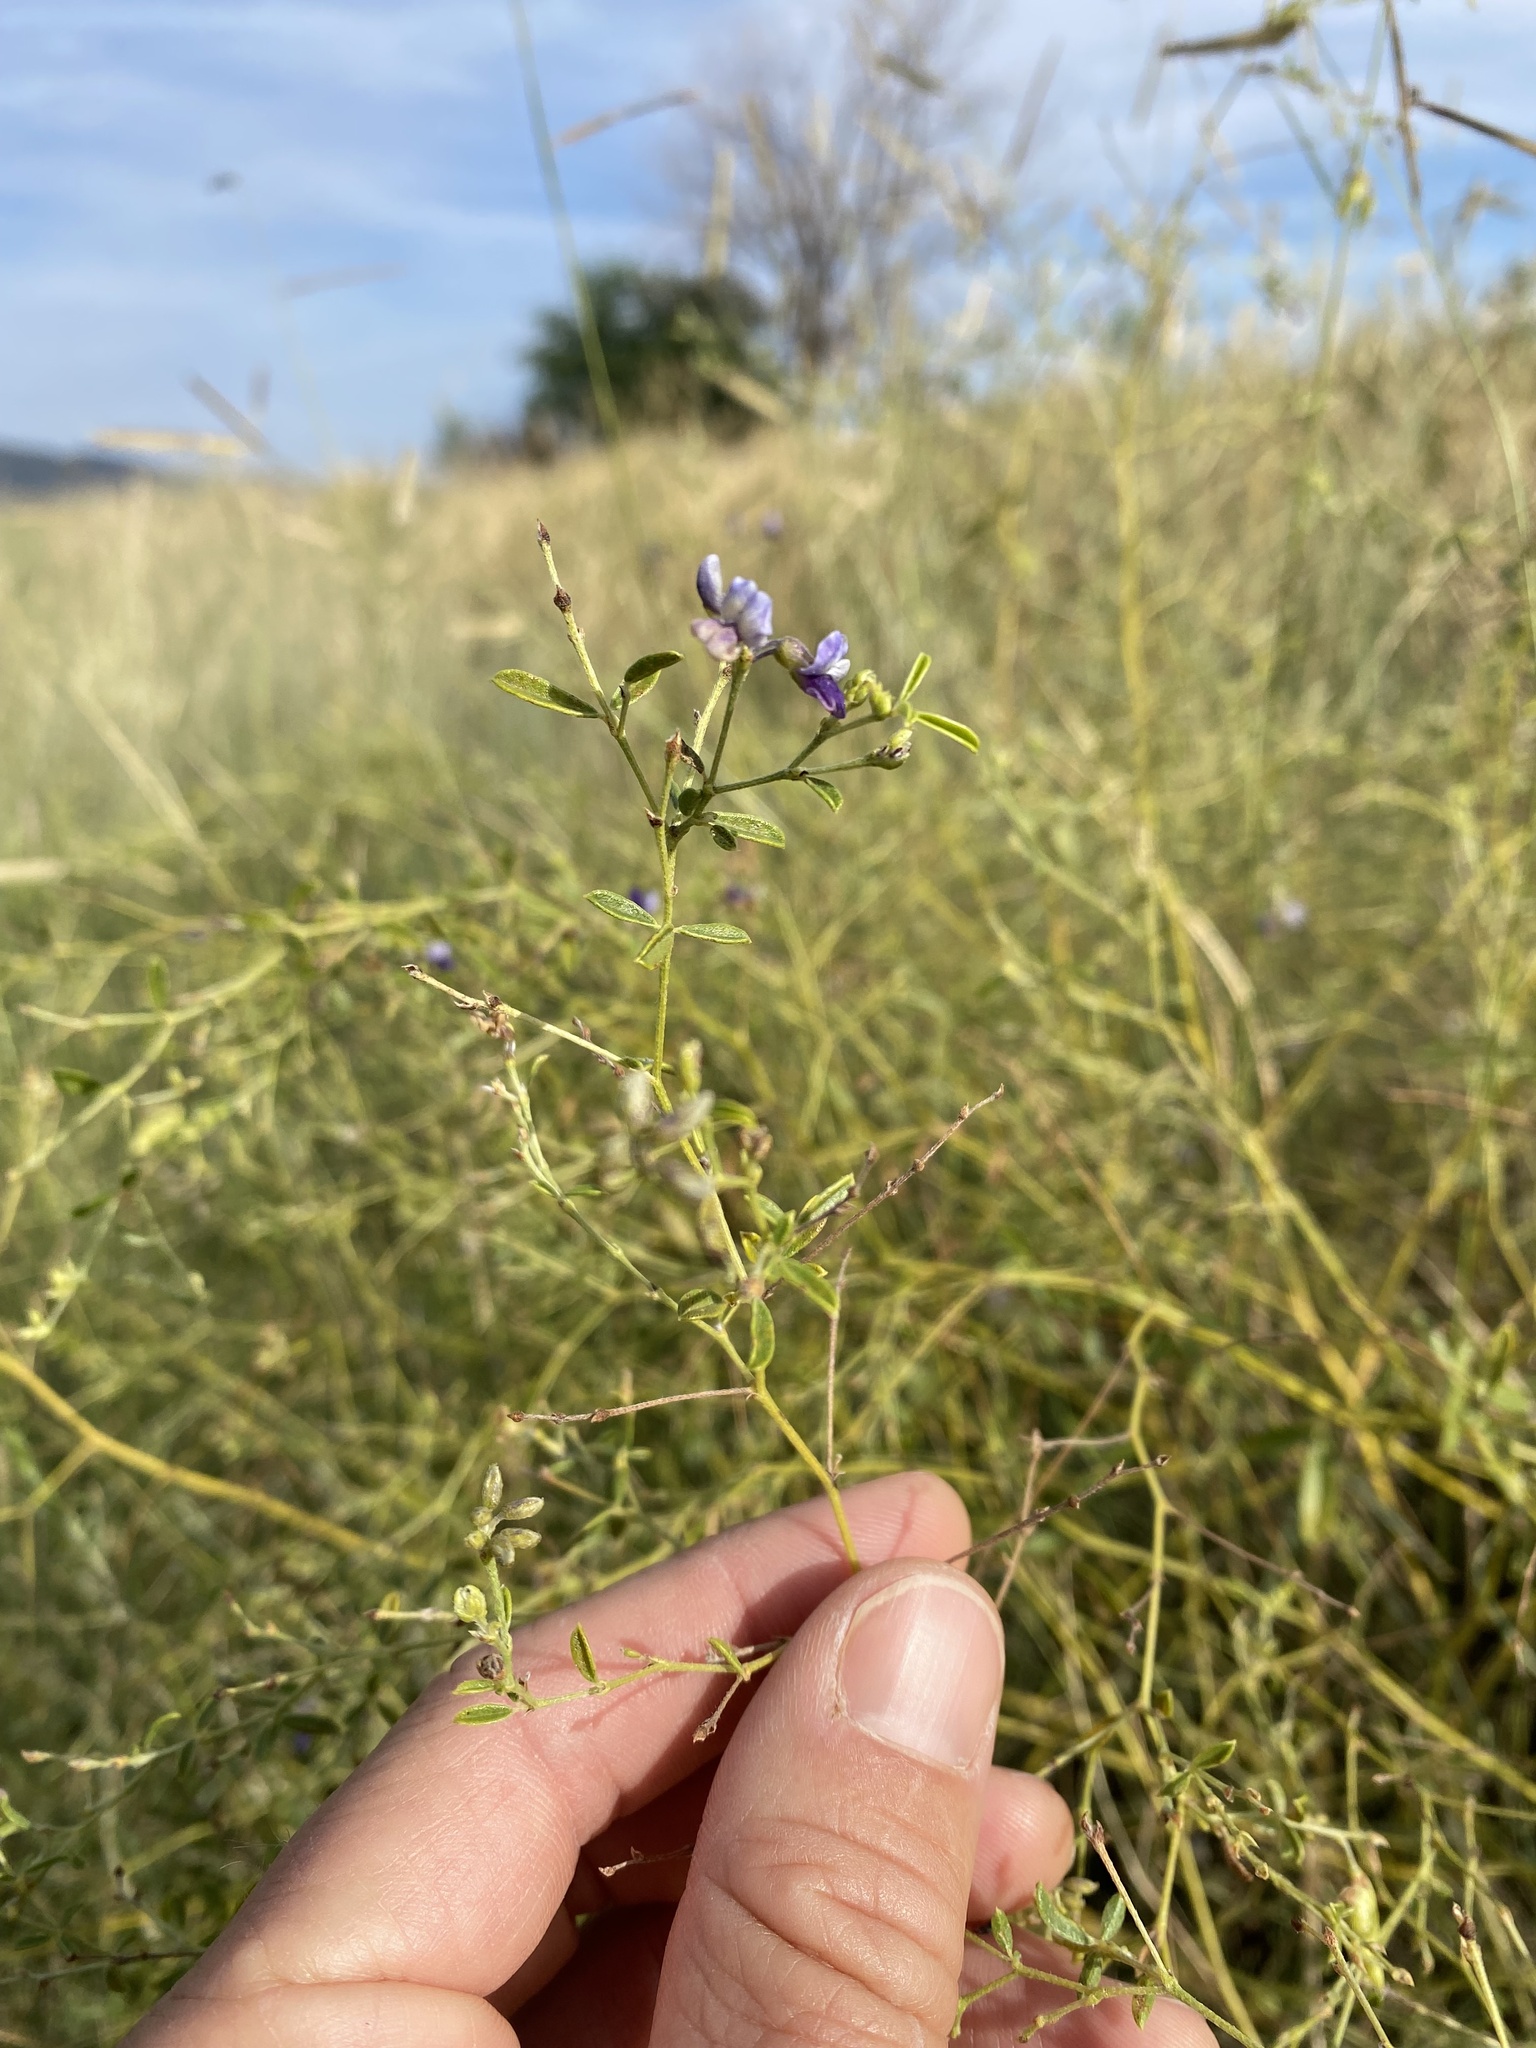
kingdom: Plantae
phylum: Tracheophyta
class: Magnoliopsida
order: Fabales
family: Fabaceae
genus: Pediomelum
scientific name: Pediomelum tenuiflorum
